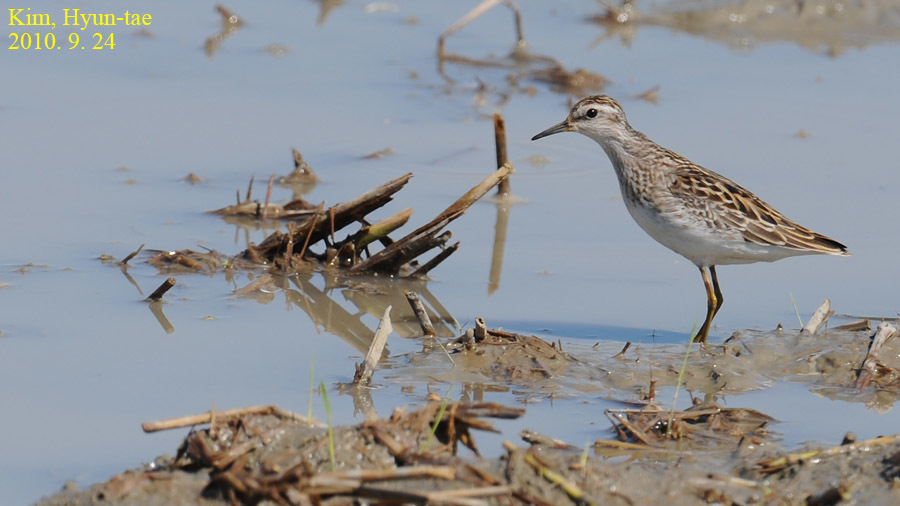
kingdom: Animalia
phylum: Chordata
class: Aves
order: Charadriiformes
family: Scolopacidae
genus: Calidris
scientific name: Calidris subminuta
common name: Long-toed stint
